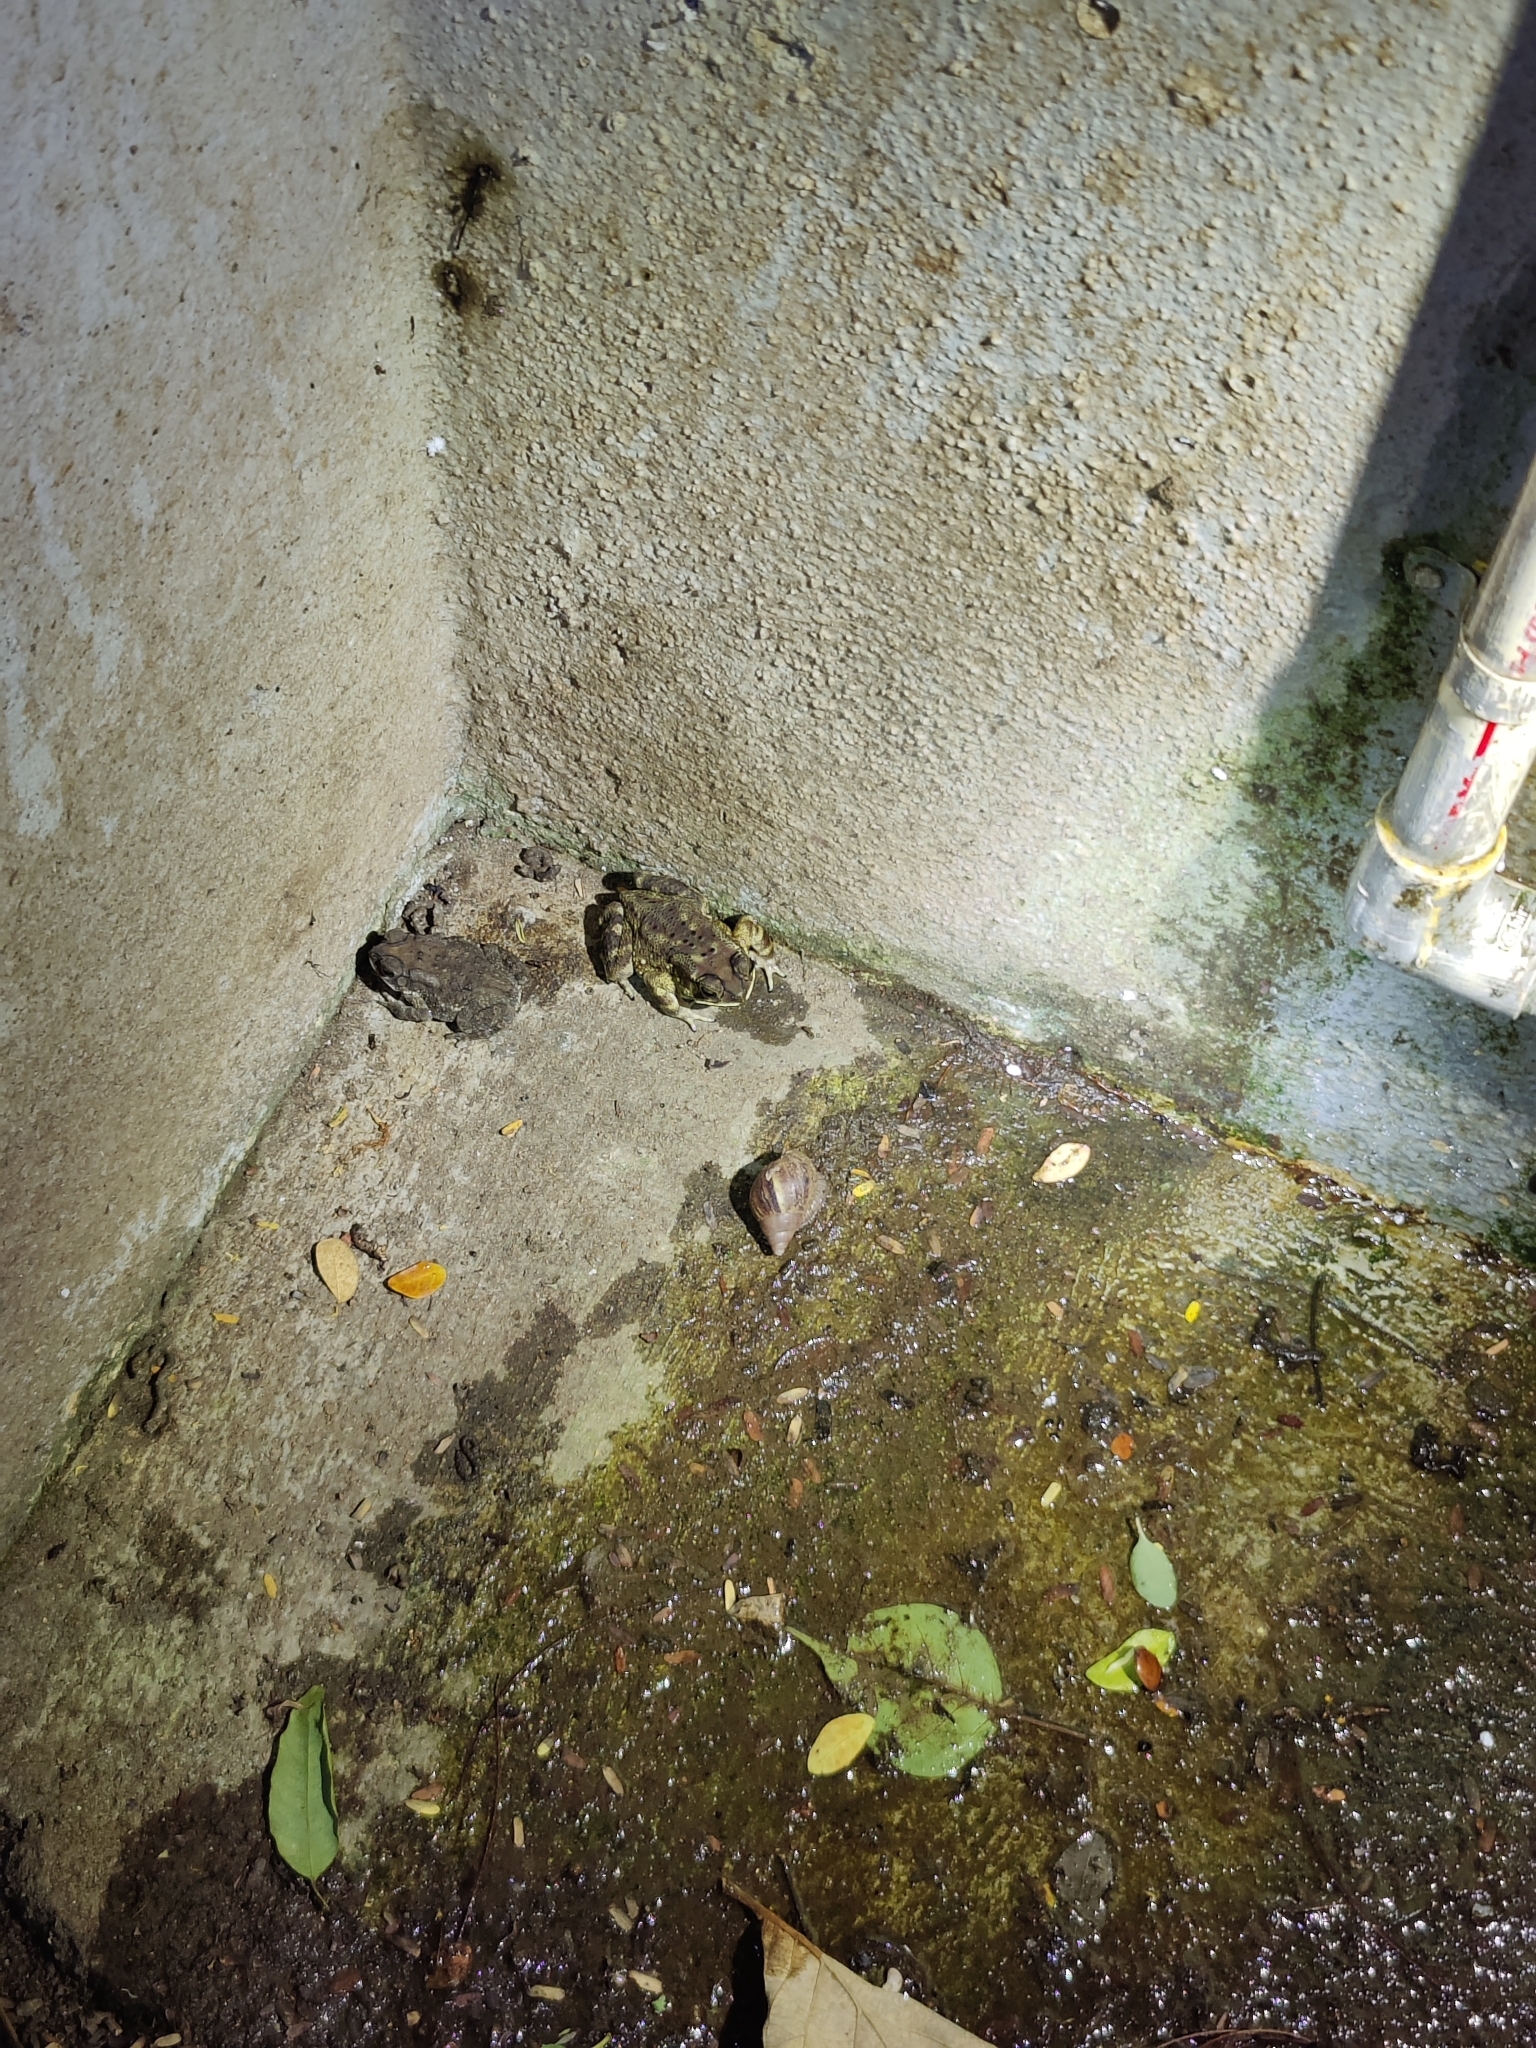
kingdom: Animalia
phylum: Chordata
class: Amphibia
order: Anura
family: Bufonidae
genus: Duttaphrynus
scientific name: Duttaphrynus melanostictus
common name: Common sunda toad
